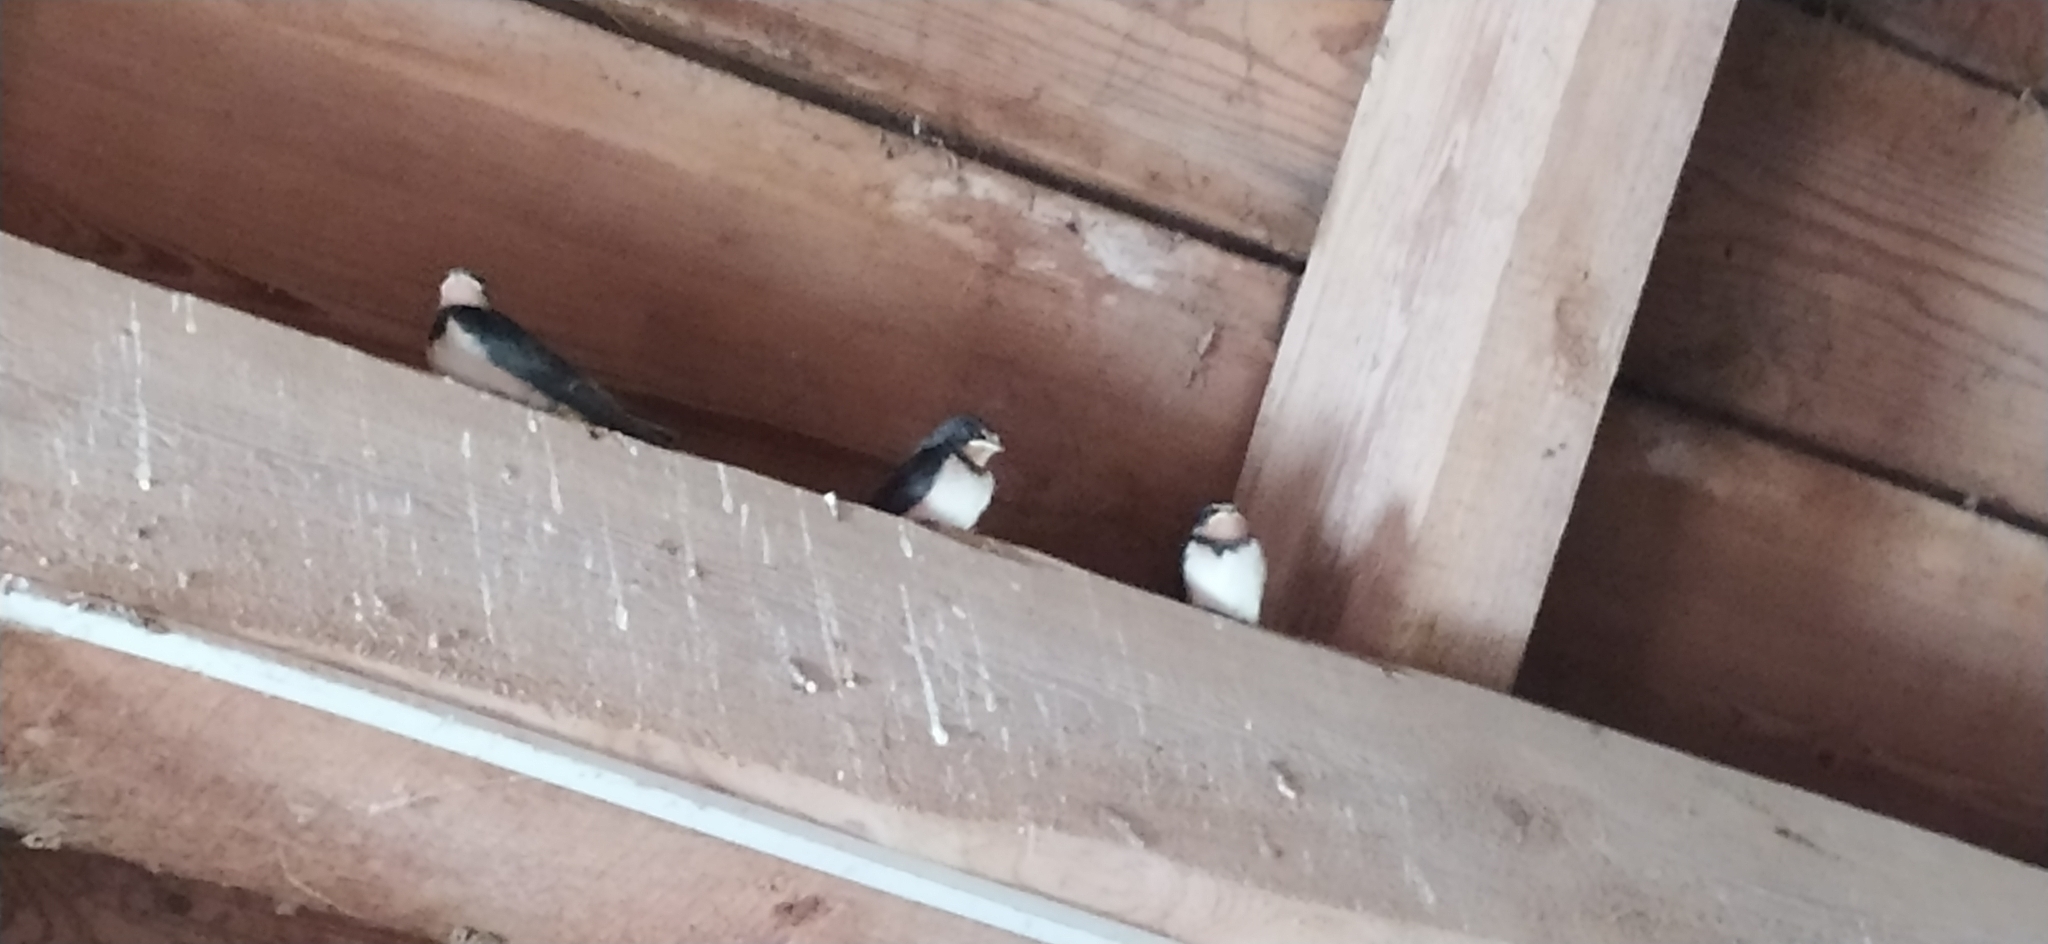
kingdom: Animalia
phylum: Chordata
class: Aves
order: Passeriformes
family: Hirundinidae
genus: Hirundo
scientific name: Hirundo rustica
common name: Barn swallow
